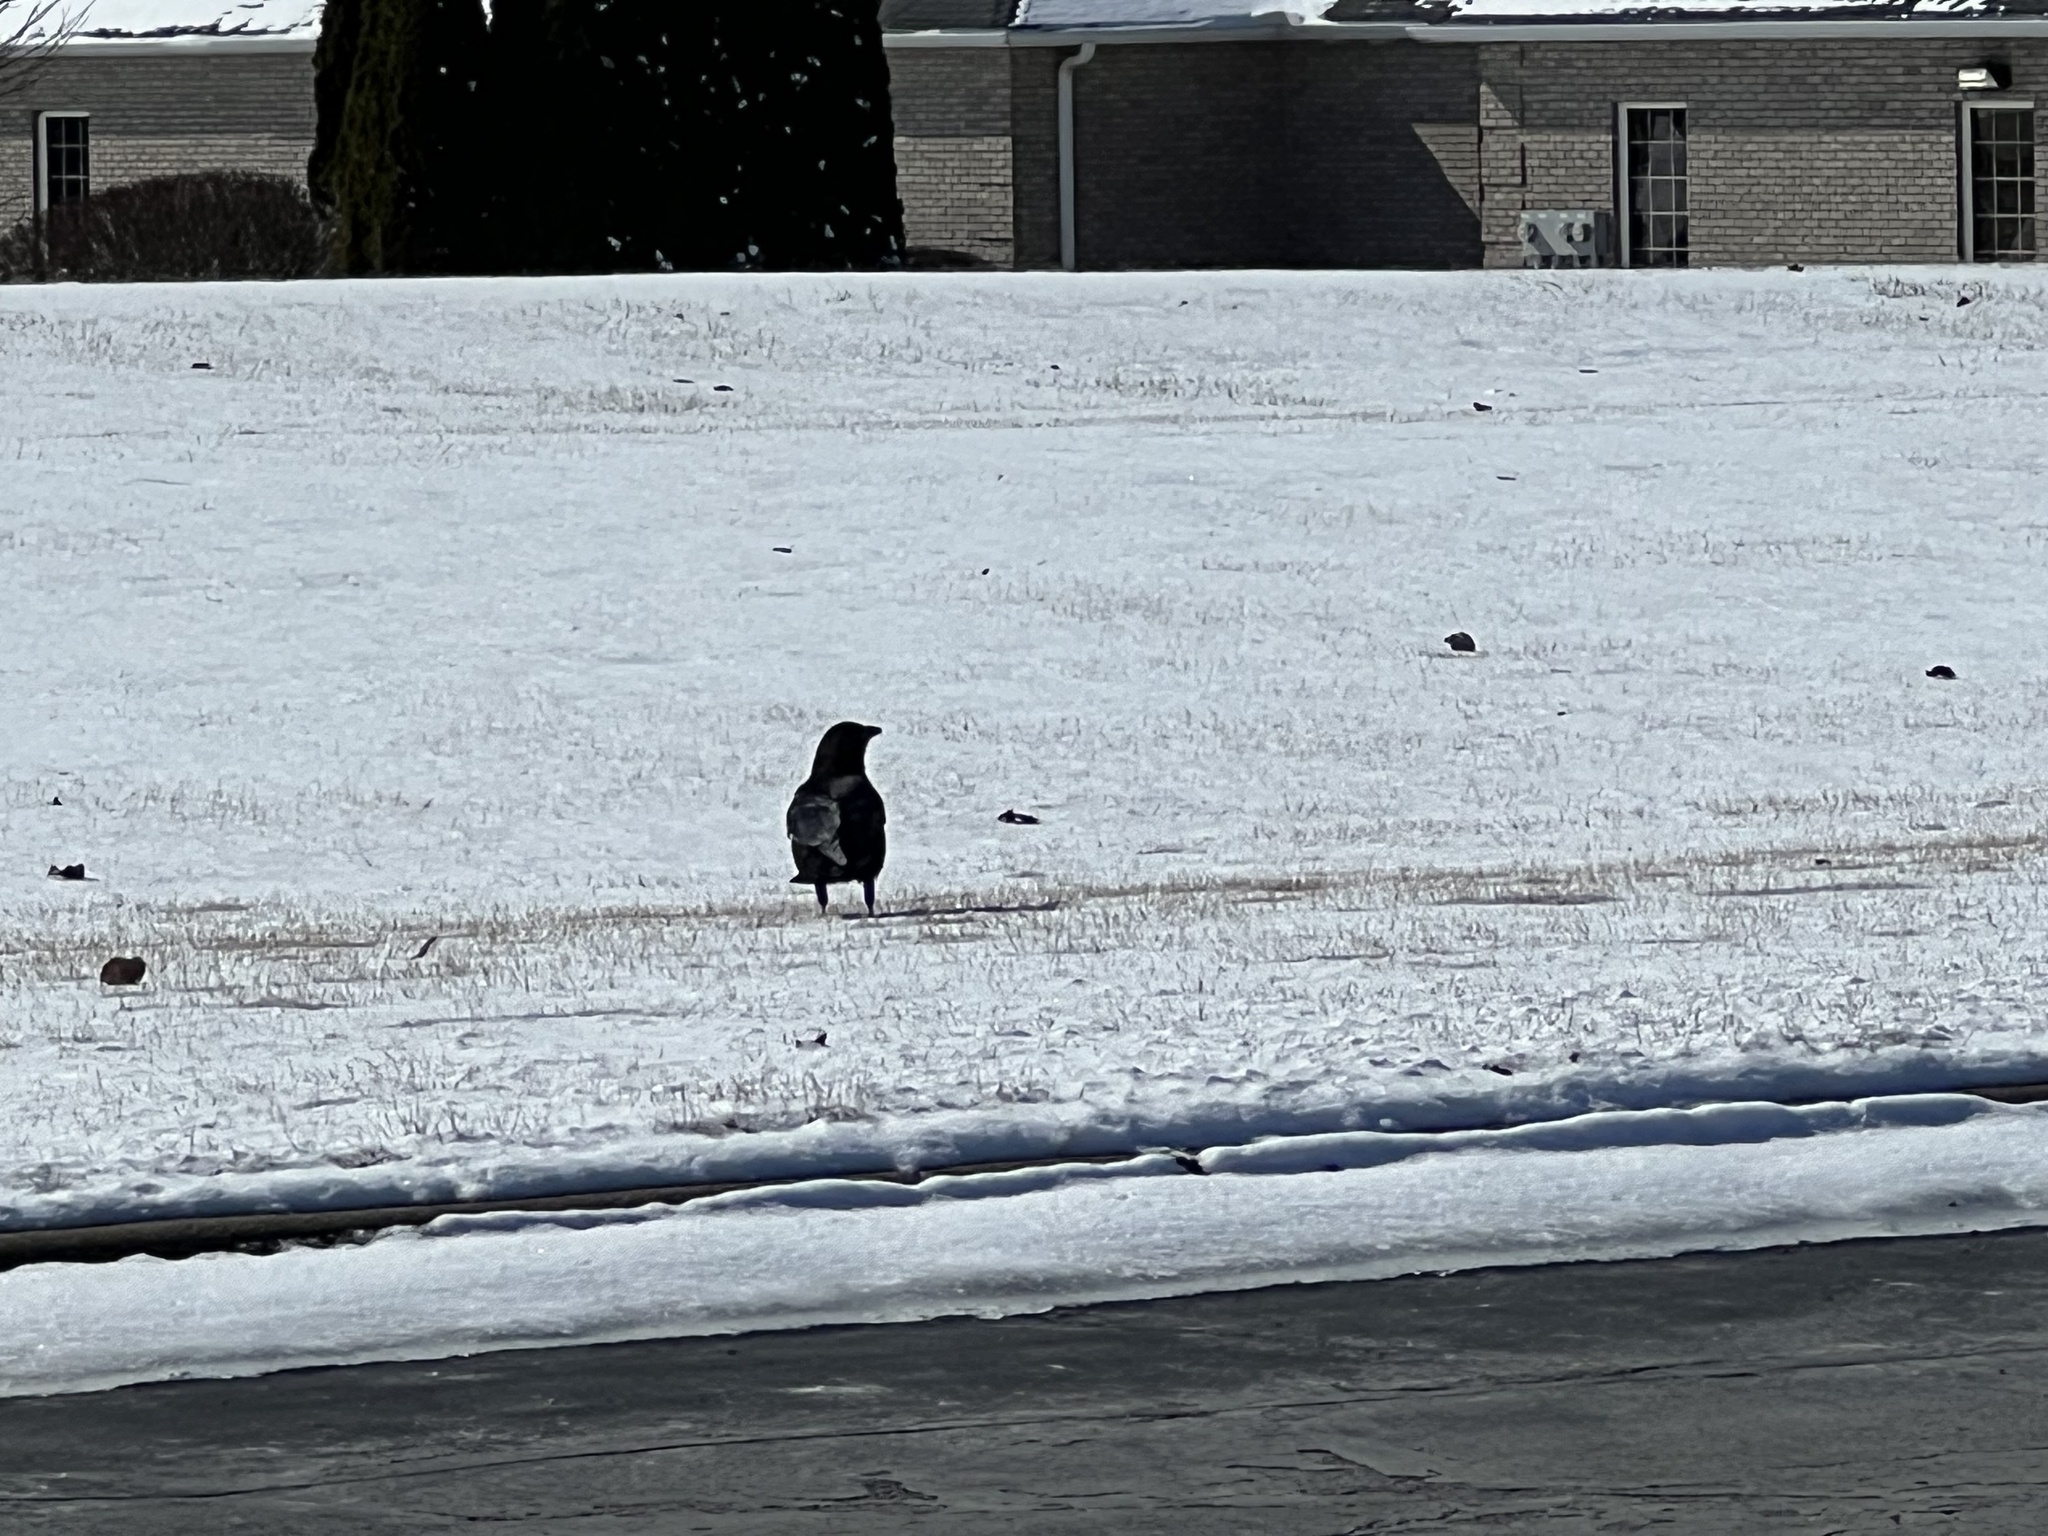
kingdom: Animalia
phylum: Chordata
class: Aves
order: Passeriformes
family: Corvidae
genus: Corvus
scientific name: Corvus brachyrhynchos
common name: American crow
